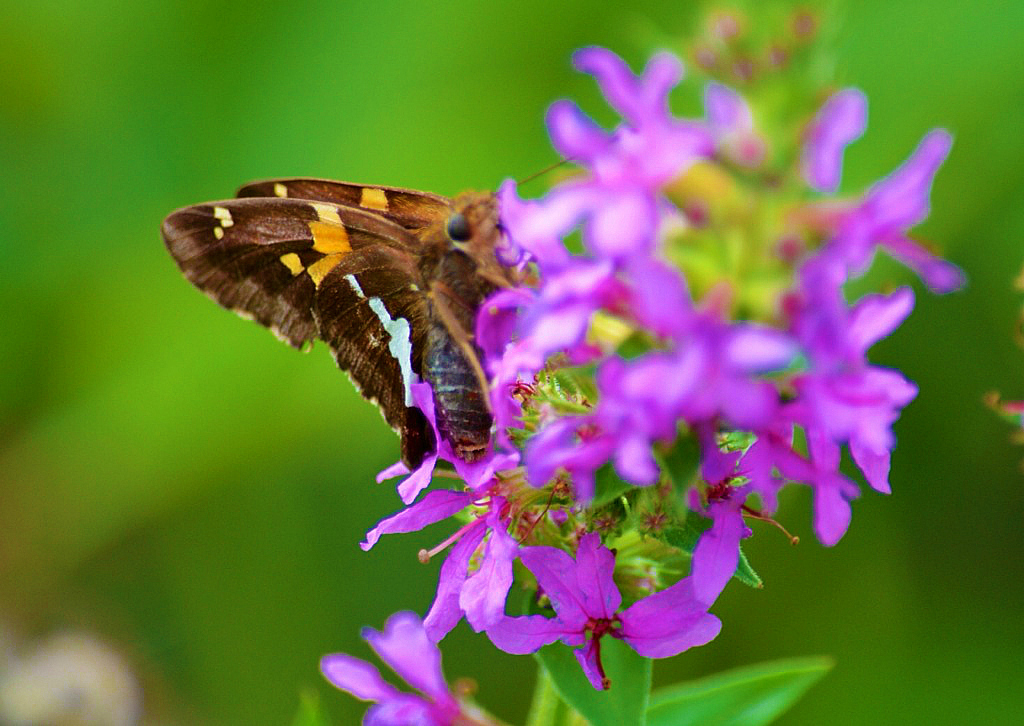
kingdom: Animalia
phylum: Arthropoda
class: Insecta
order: Lepidoptera
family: Hesperiidae
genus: Epargyreus
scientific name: Epargyreus clarus
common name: Silver-spotted skipper
